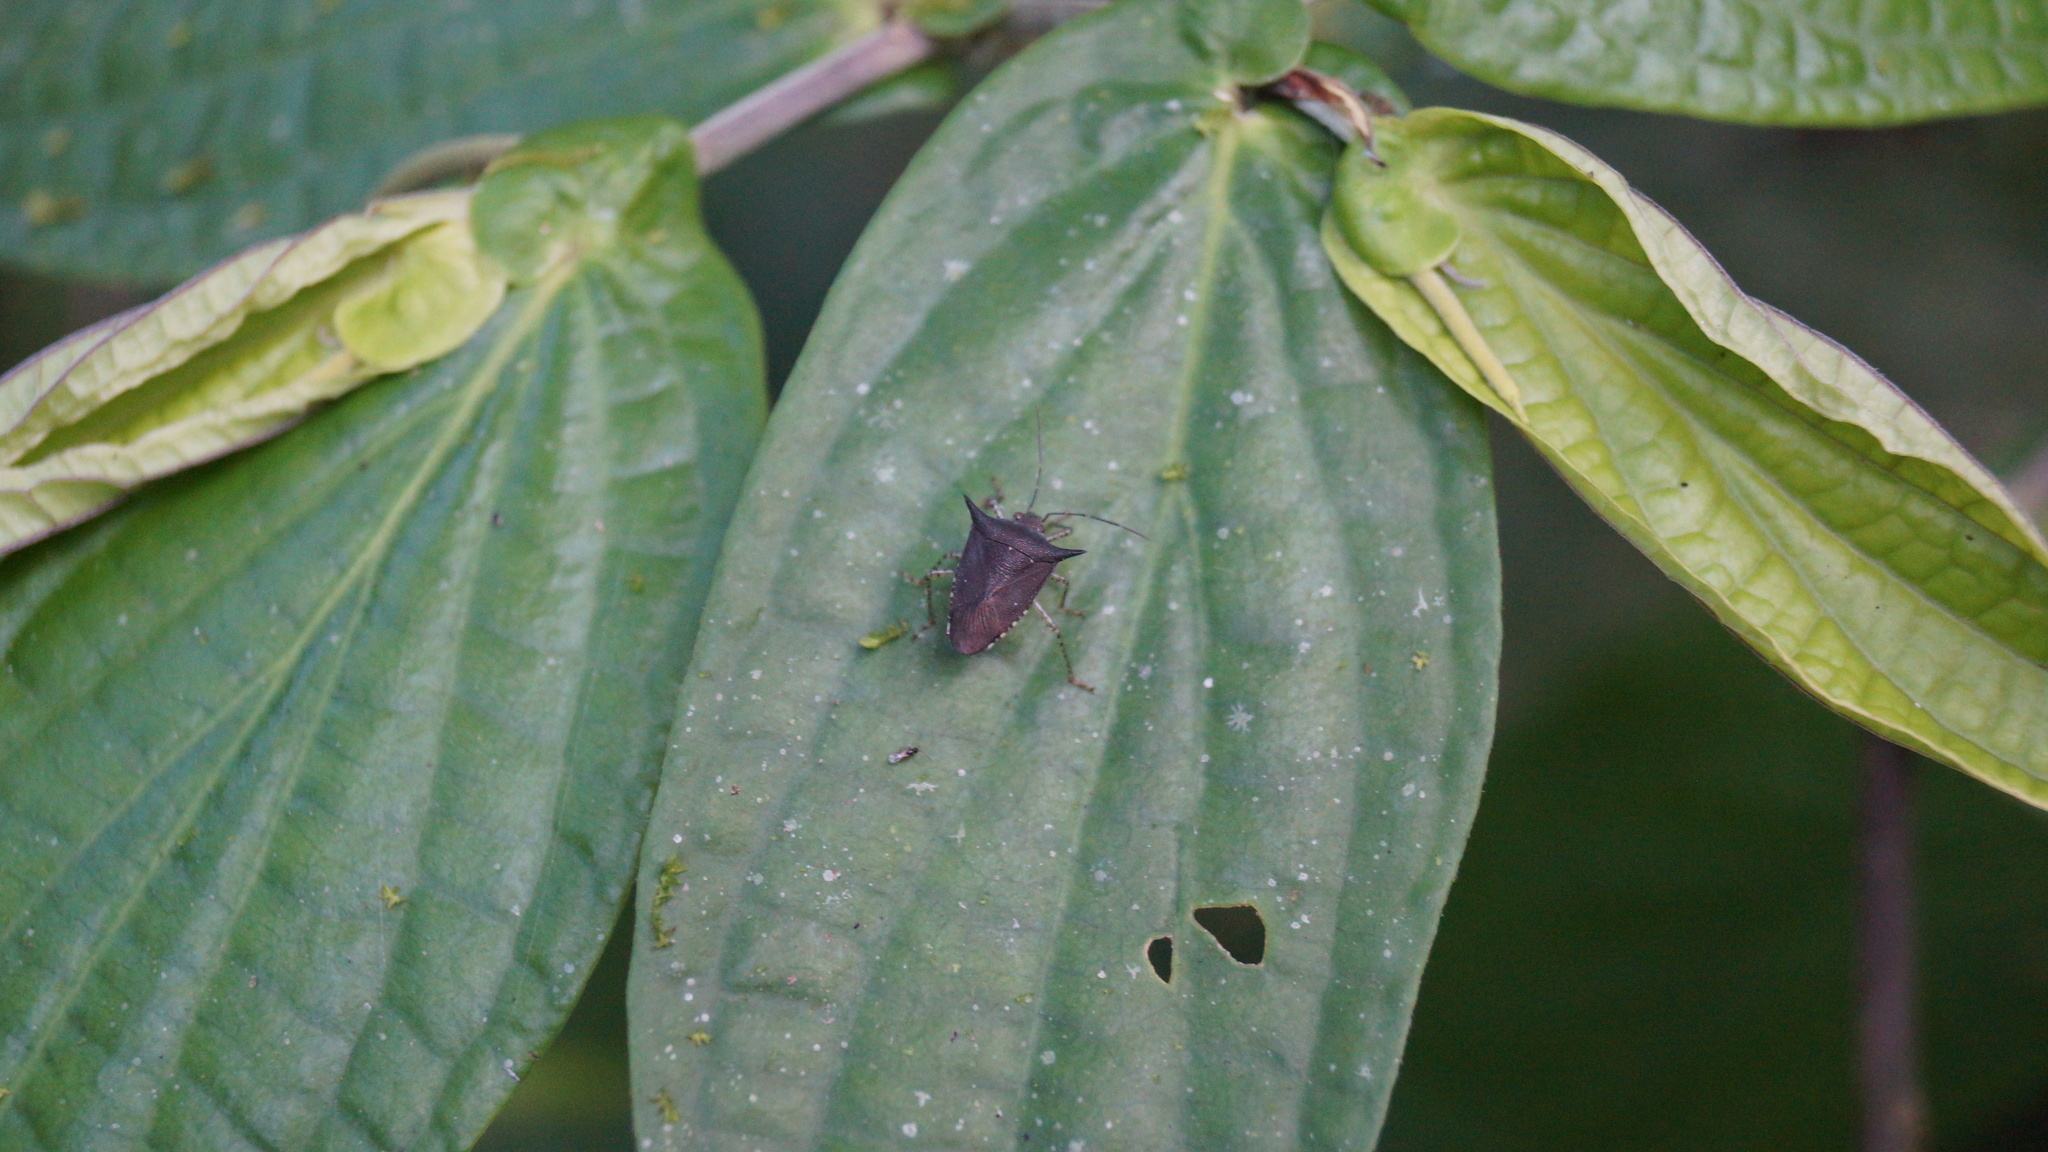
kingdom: Animalia
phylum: Arthropoda
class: Insecta
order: Hemiptera
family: Pentatomidae
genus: Sibaria
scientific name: Sibaria armata
